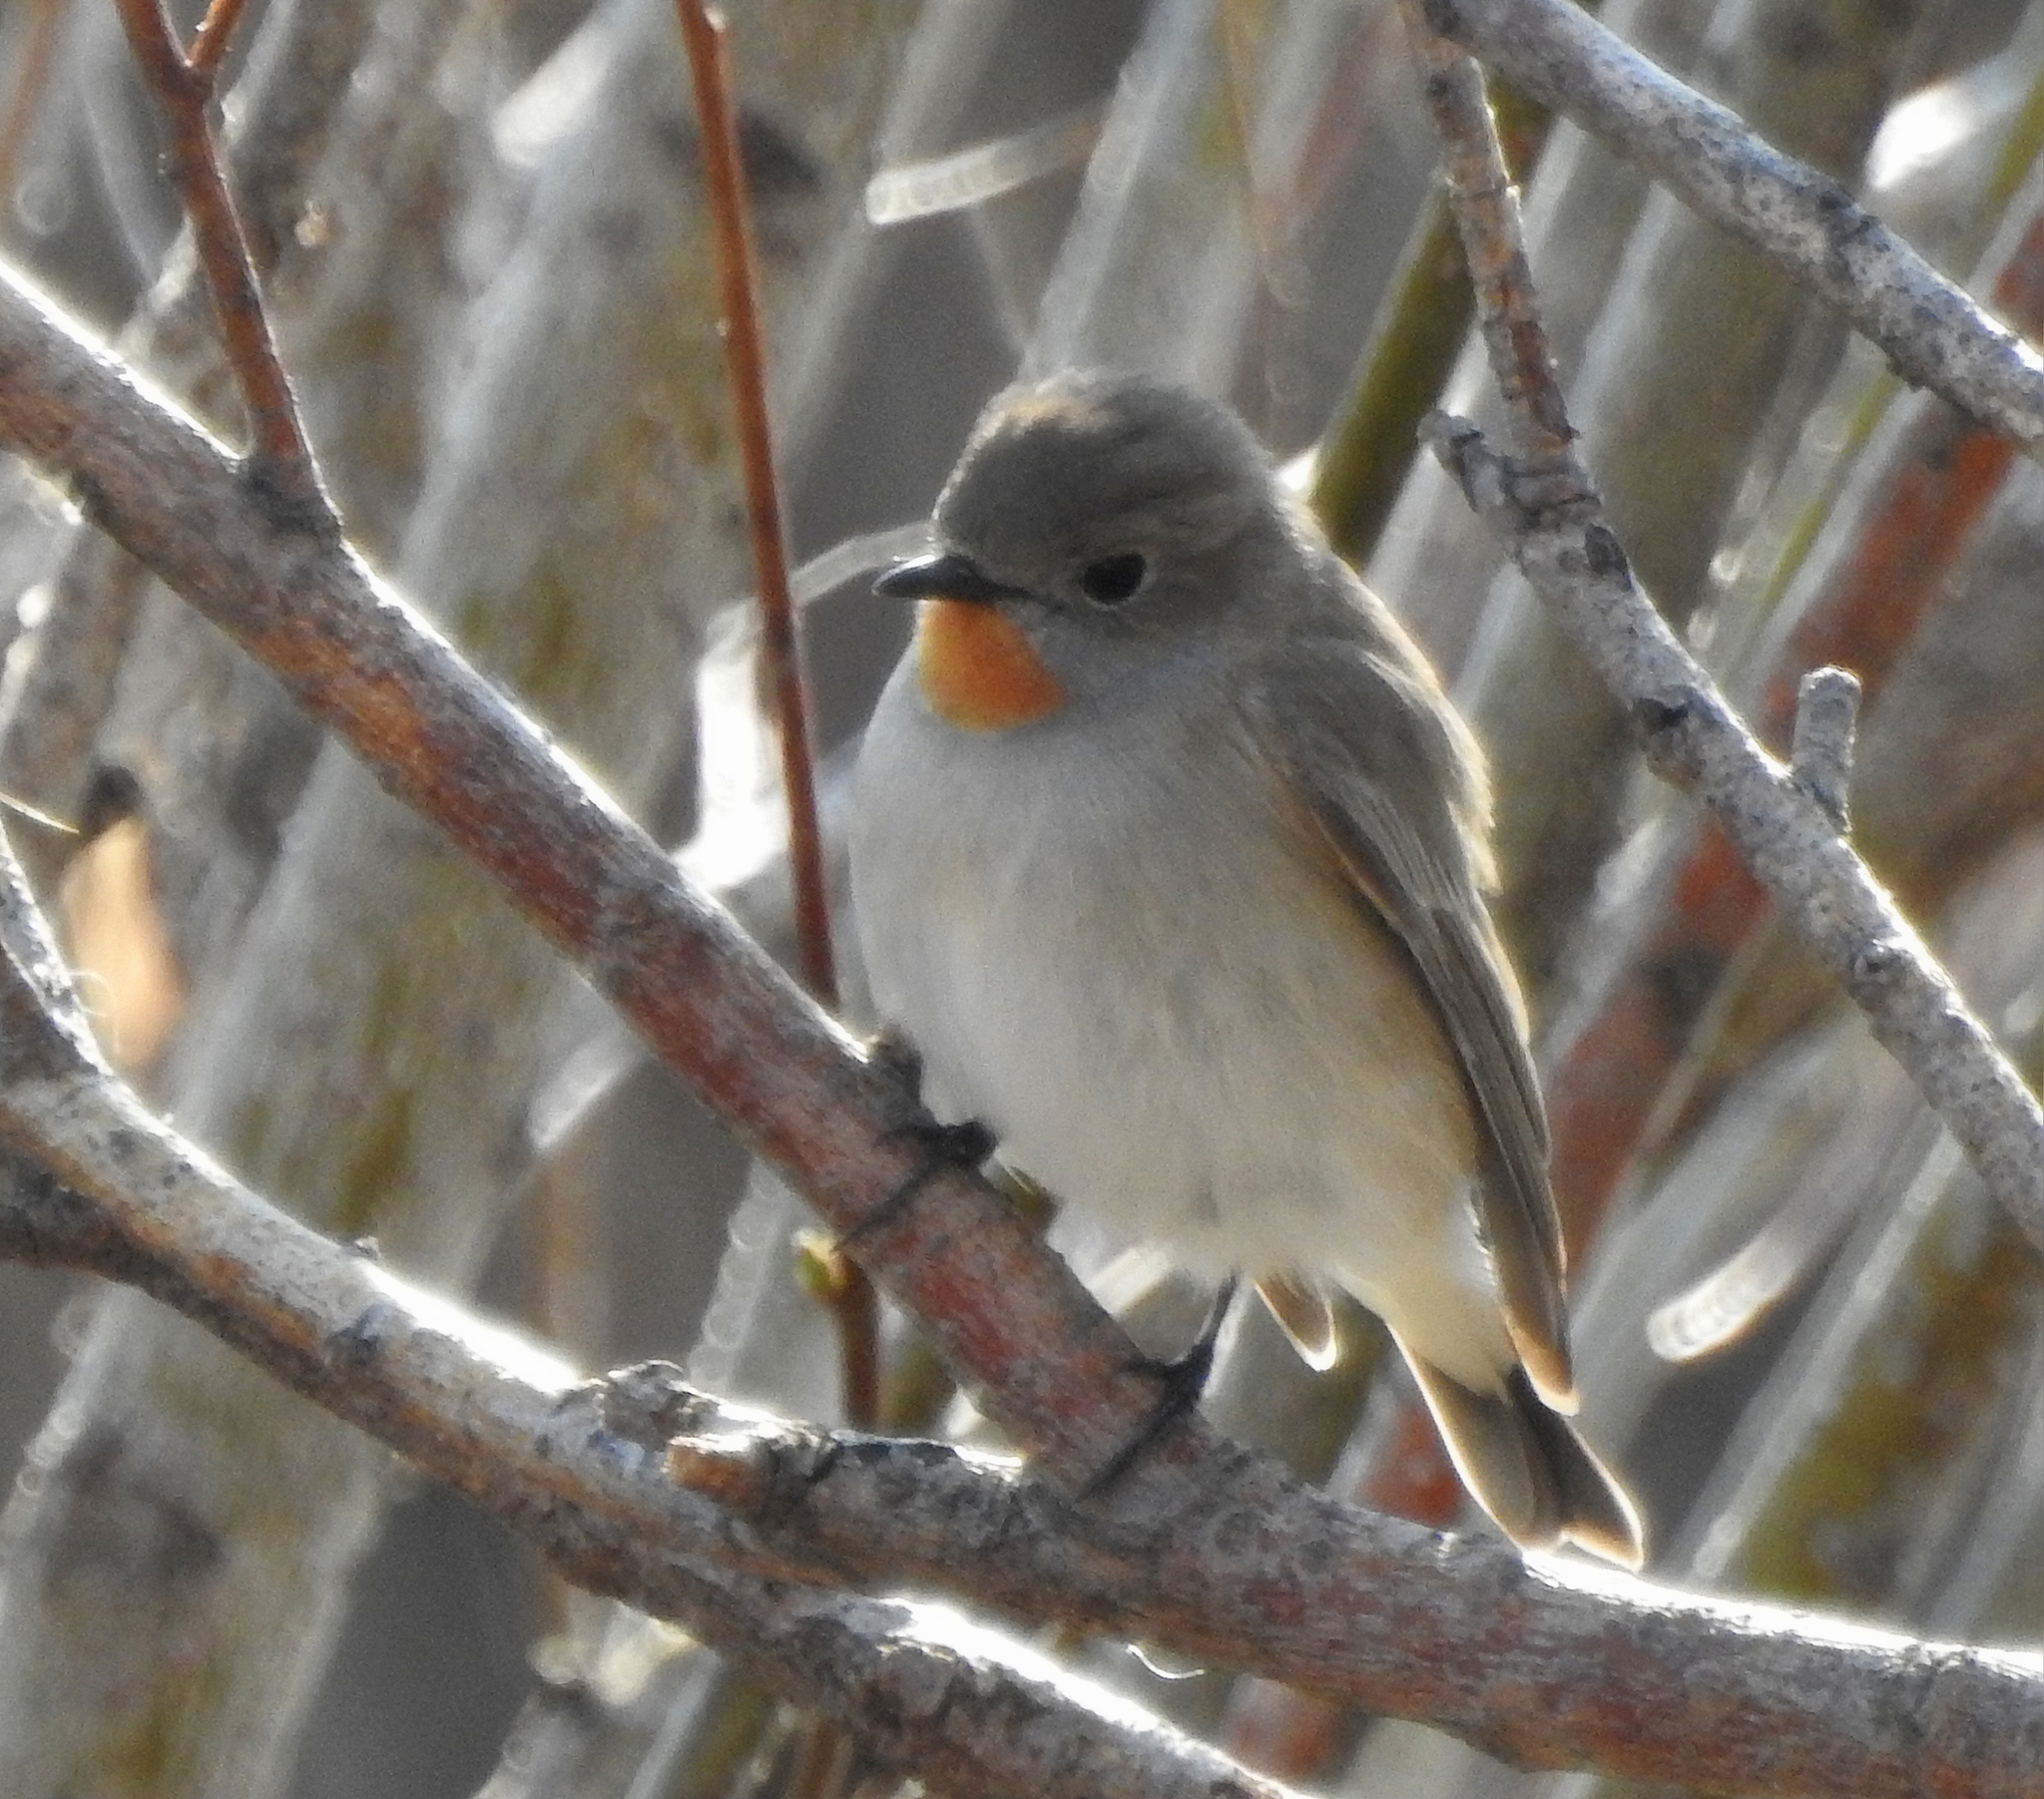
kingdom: Animalia
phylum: Chordata
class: Aves
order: Passeriformes
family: Muscicapidae
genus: Ficedula
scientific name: Ficedula albicilla
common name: Taiga flycatcher
